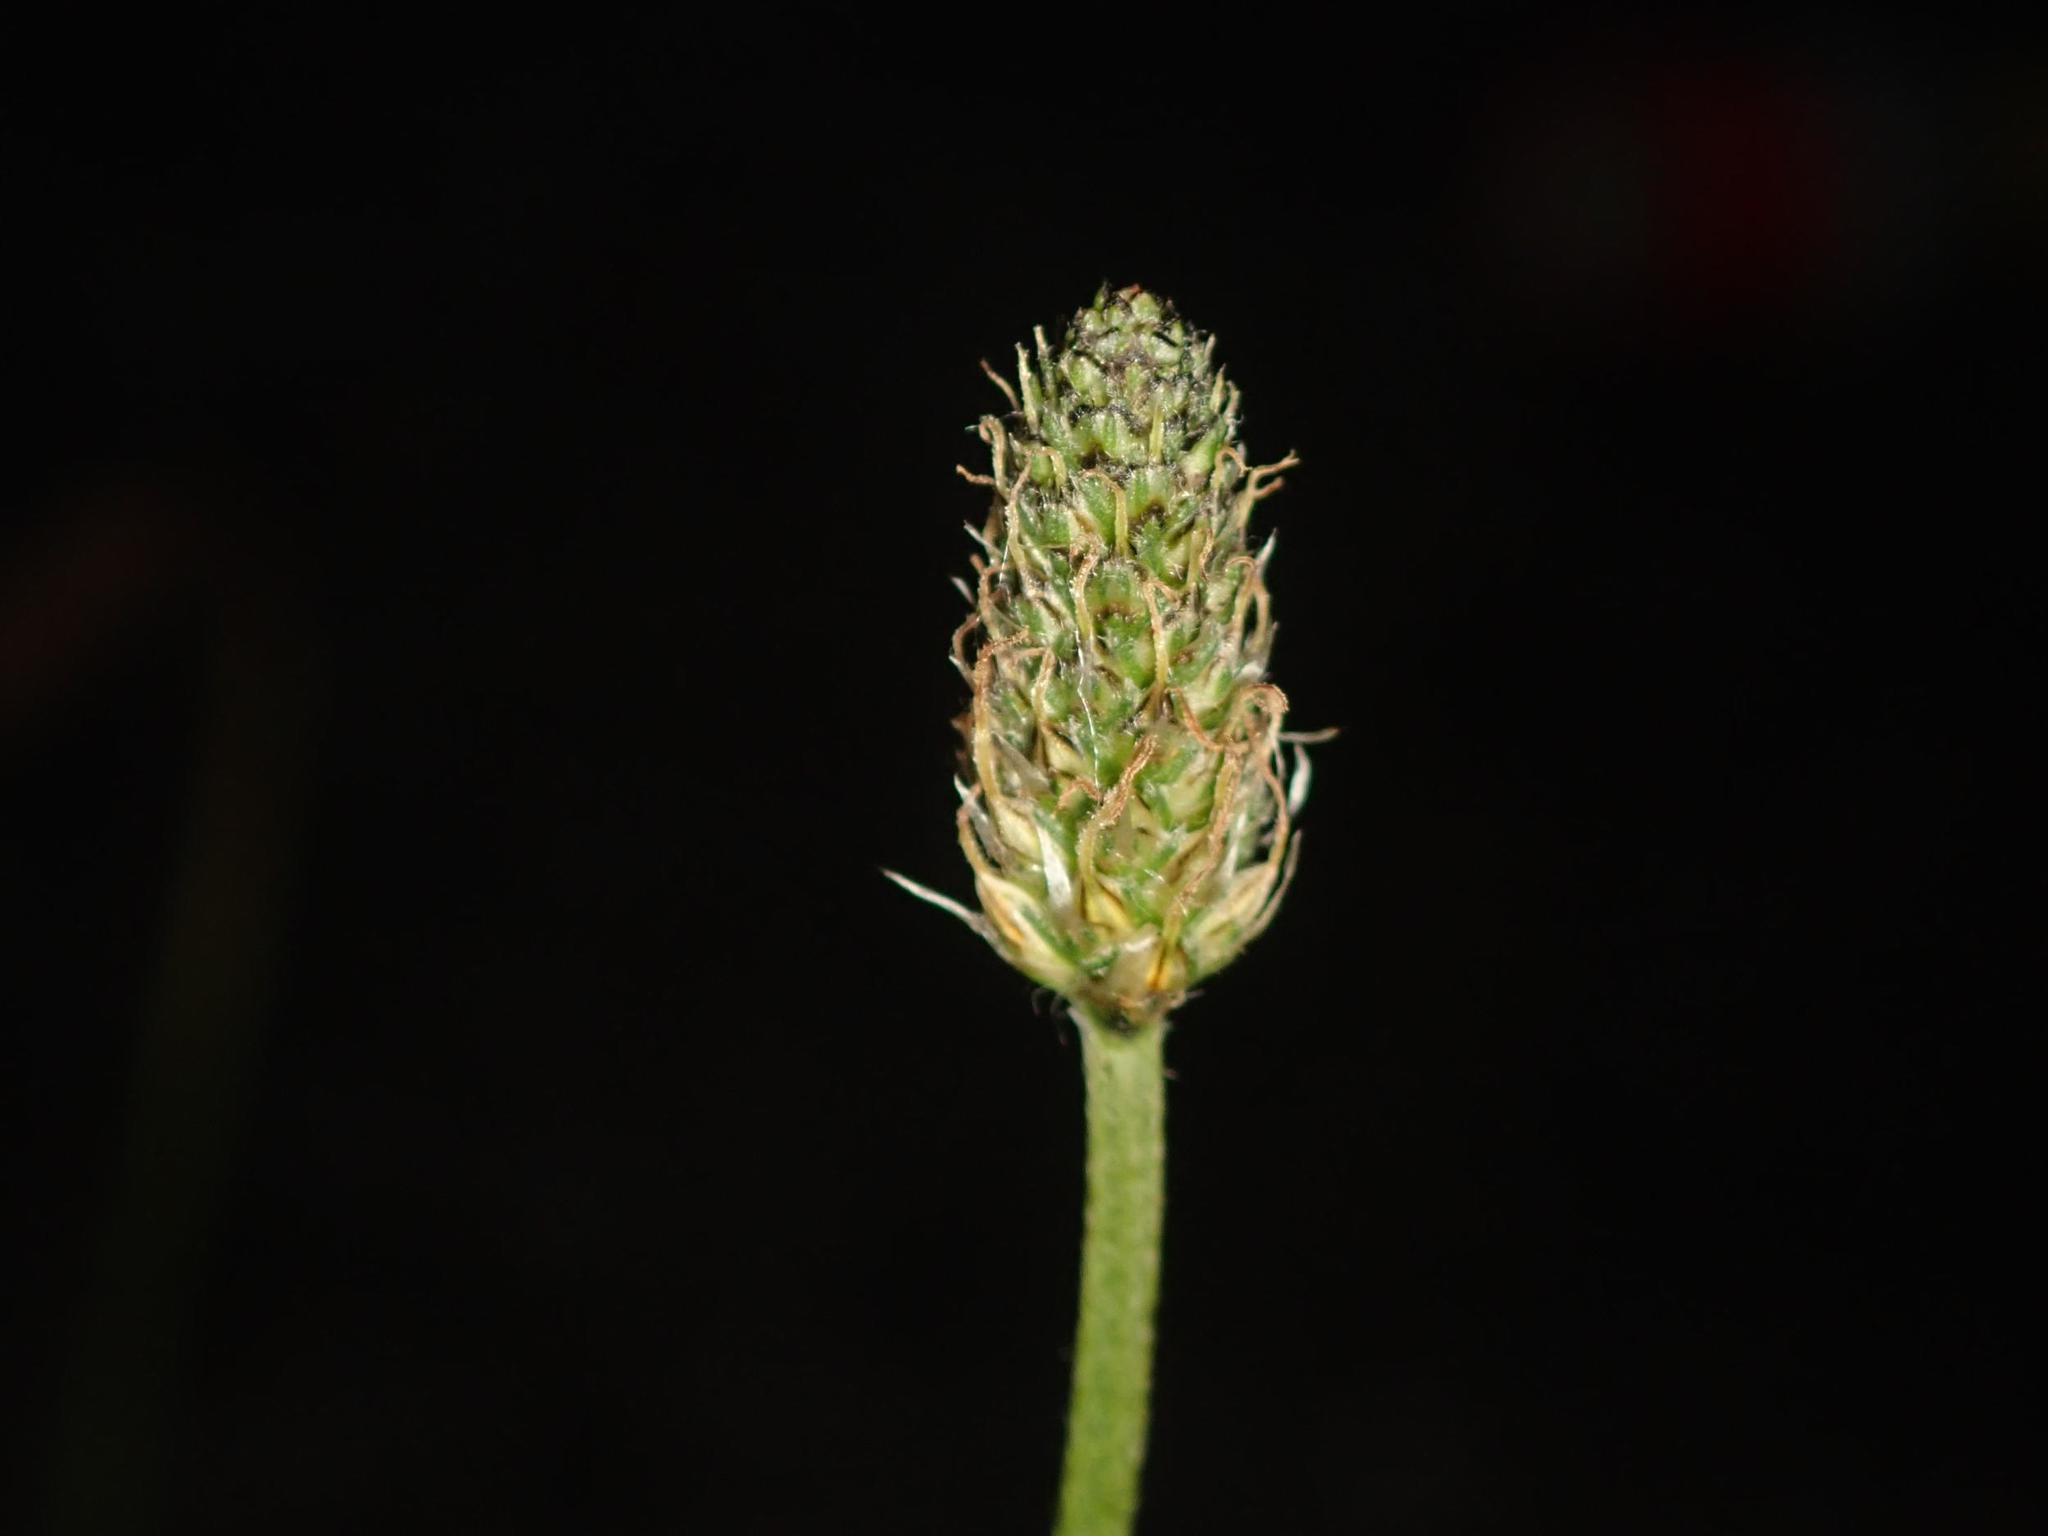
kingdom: Plantae
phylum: Tracheophyta
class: Magnoliopsida
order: Lamiales
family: Plantaginaceae
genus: Plantago
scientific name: Plantago lanceolata
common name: Ribwort plantain
